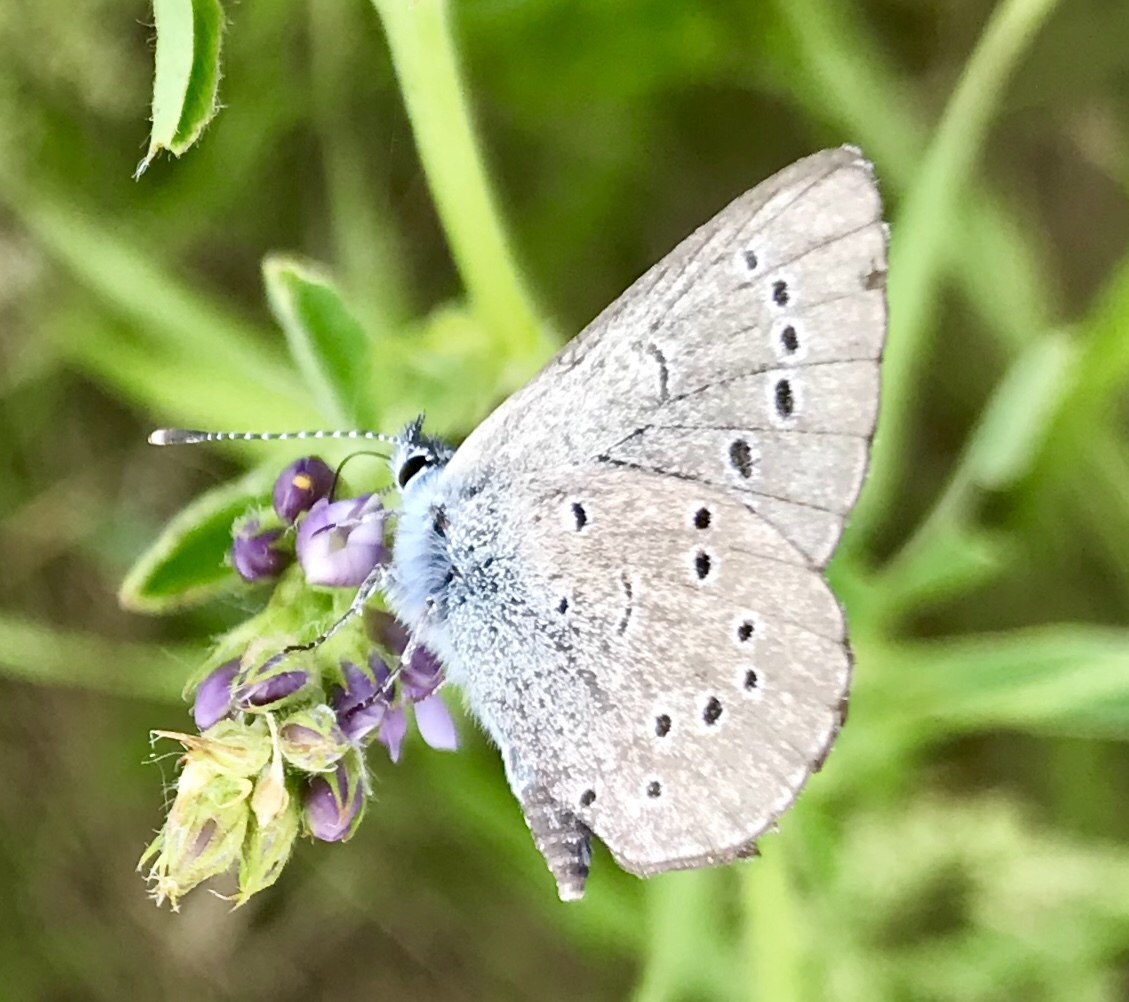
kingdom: Animalia
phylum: Arthropoda
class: Insecta
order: Lepidoptera
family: Lycaenidae
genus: Glaucopsyche
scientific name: Glaucopsyche lygdamus
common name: Silvery blue
